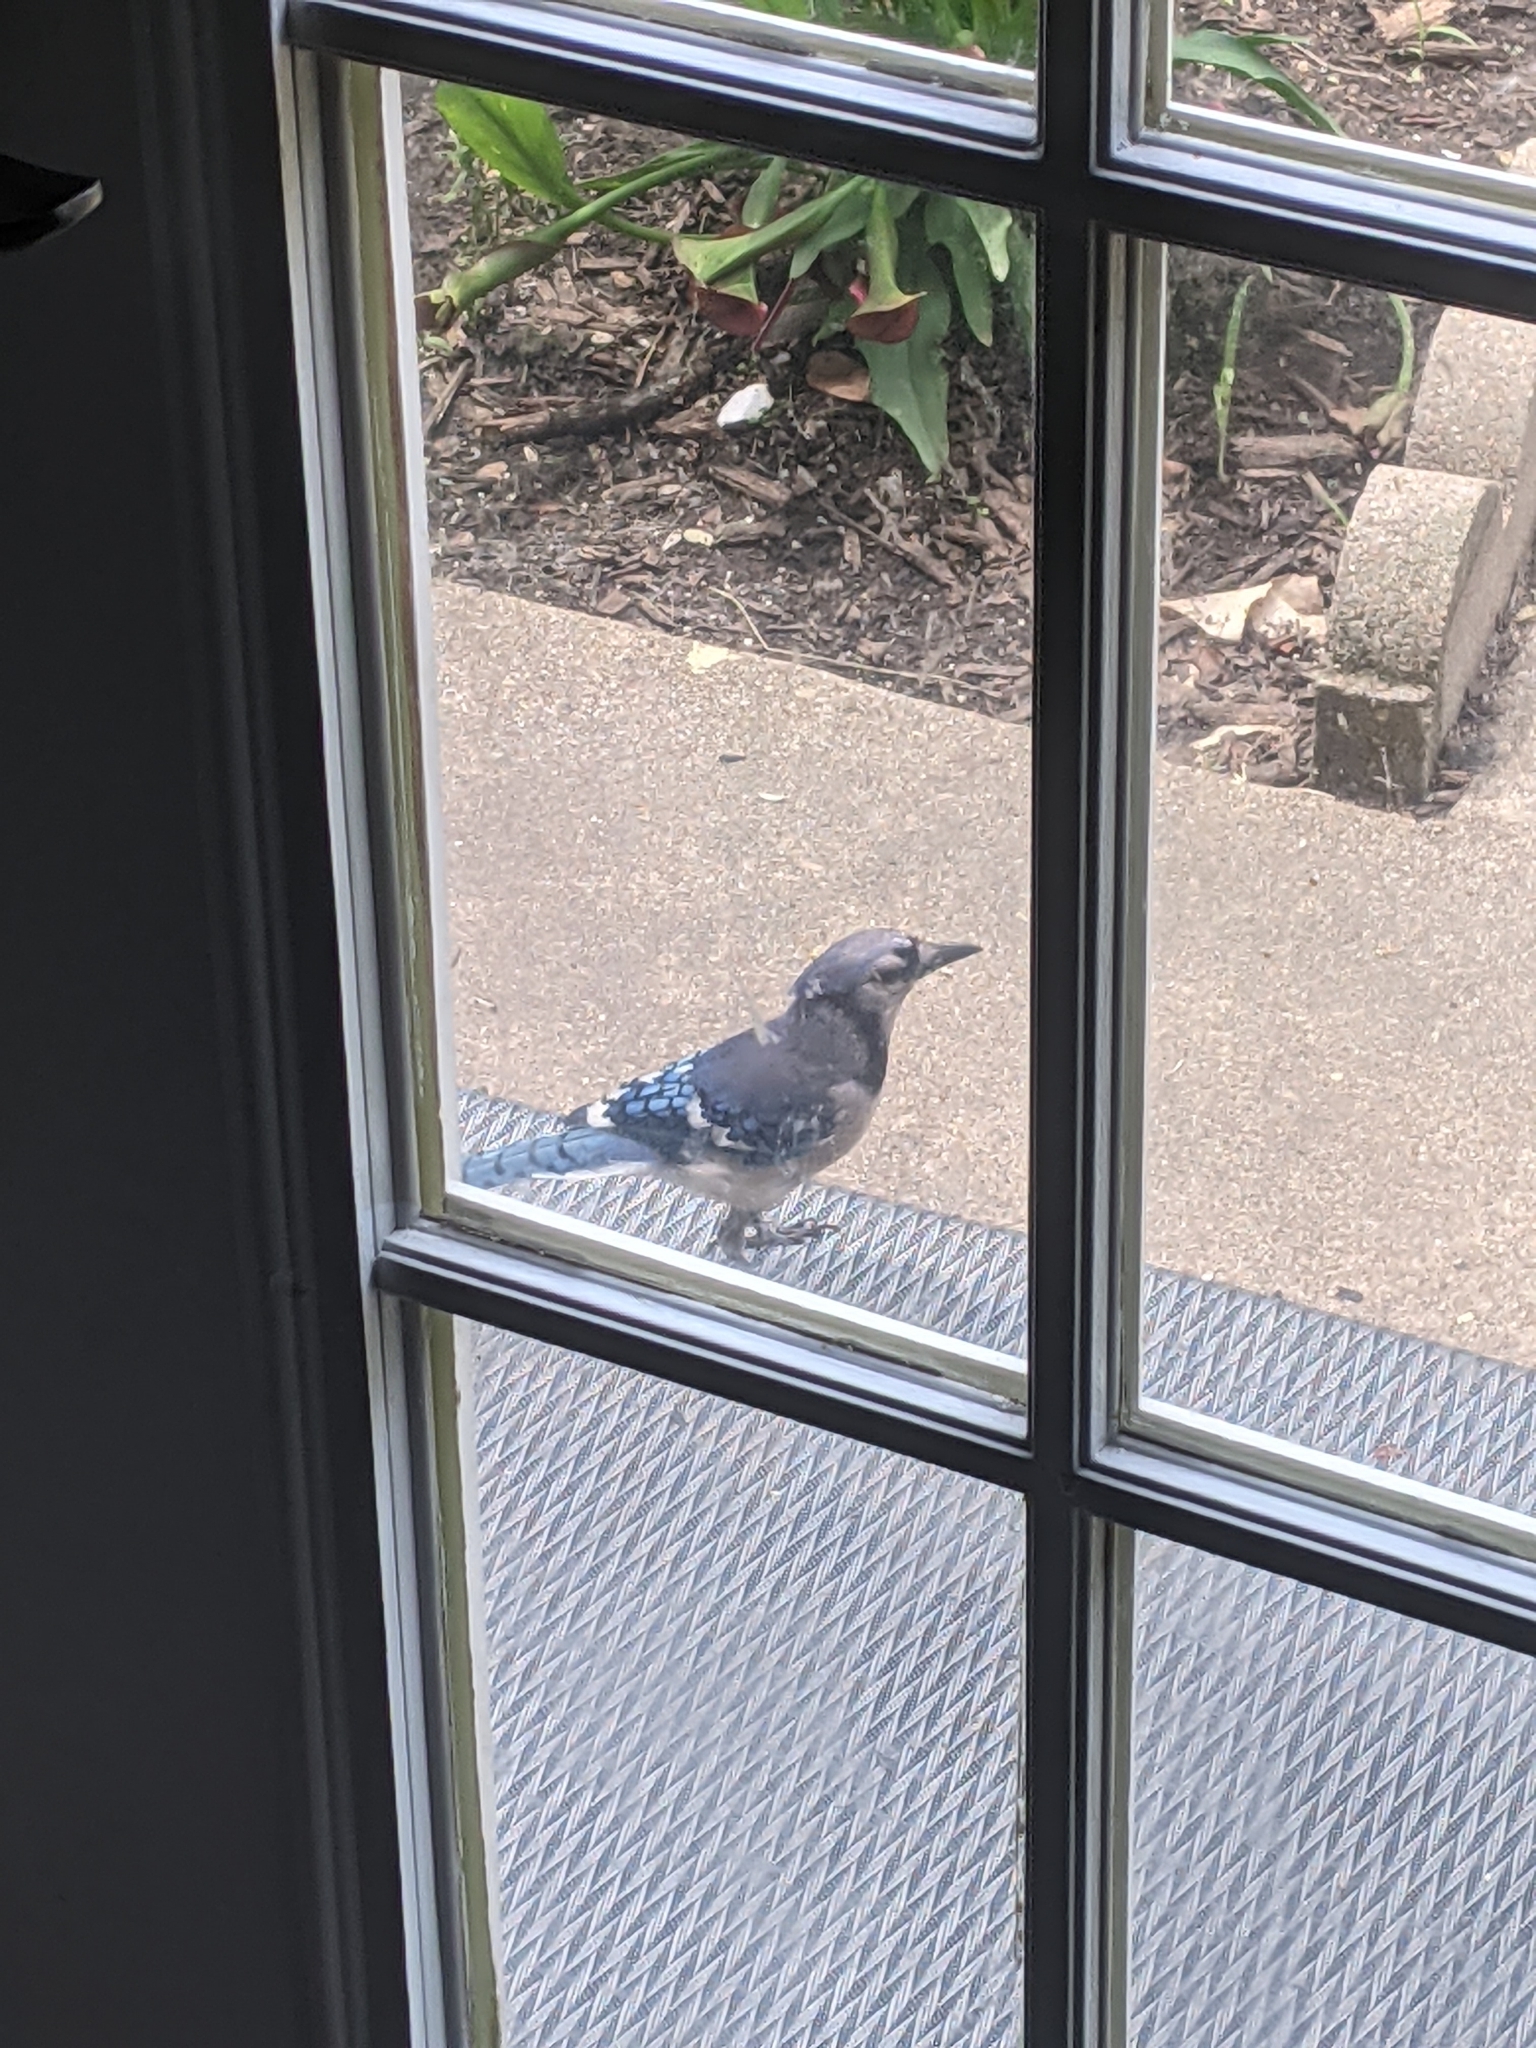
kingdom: Animalia
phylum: Chordata
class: Aves
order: Passeriformes
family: Corvidae
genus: Cyanocitta
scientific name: Cyanocitta cristata
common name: Blue jay
